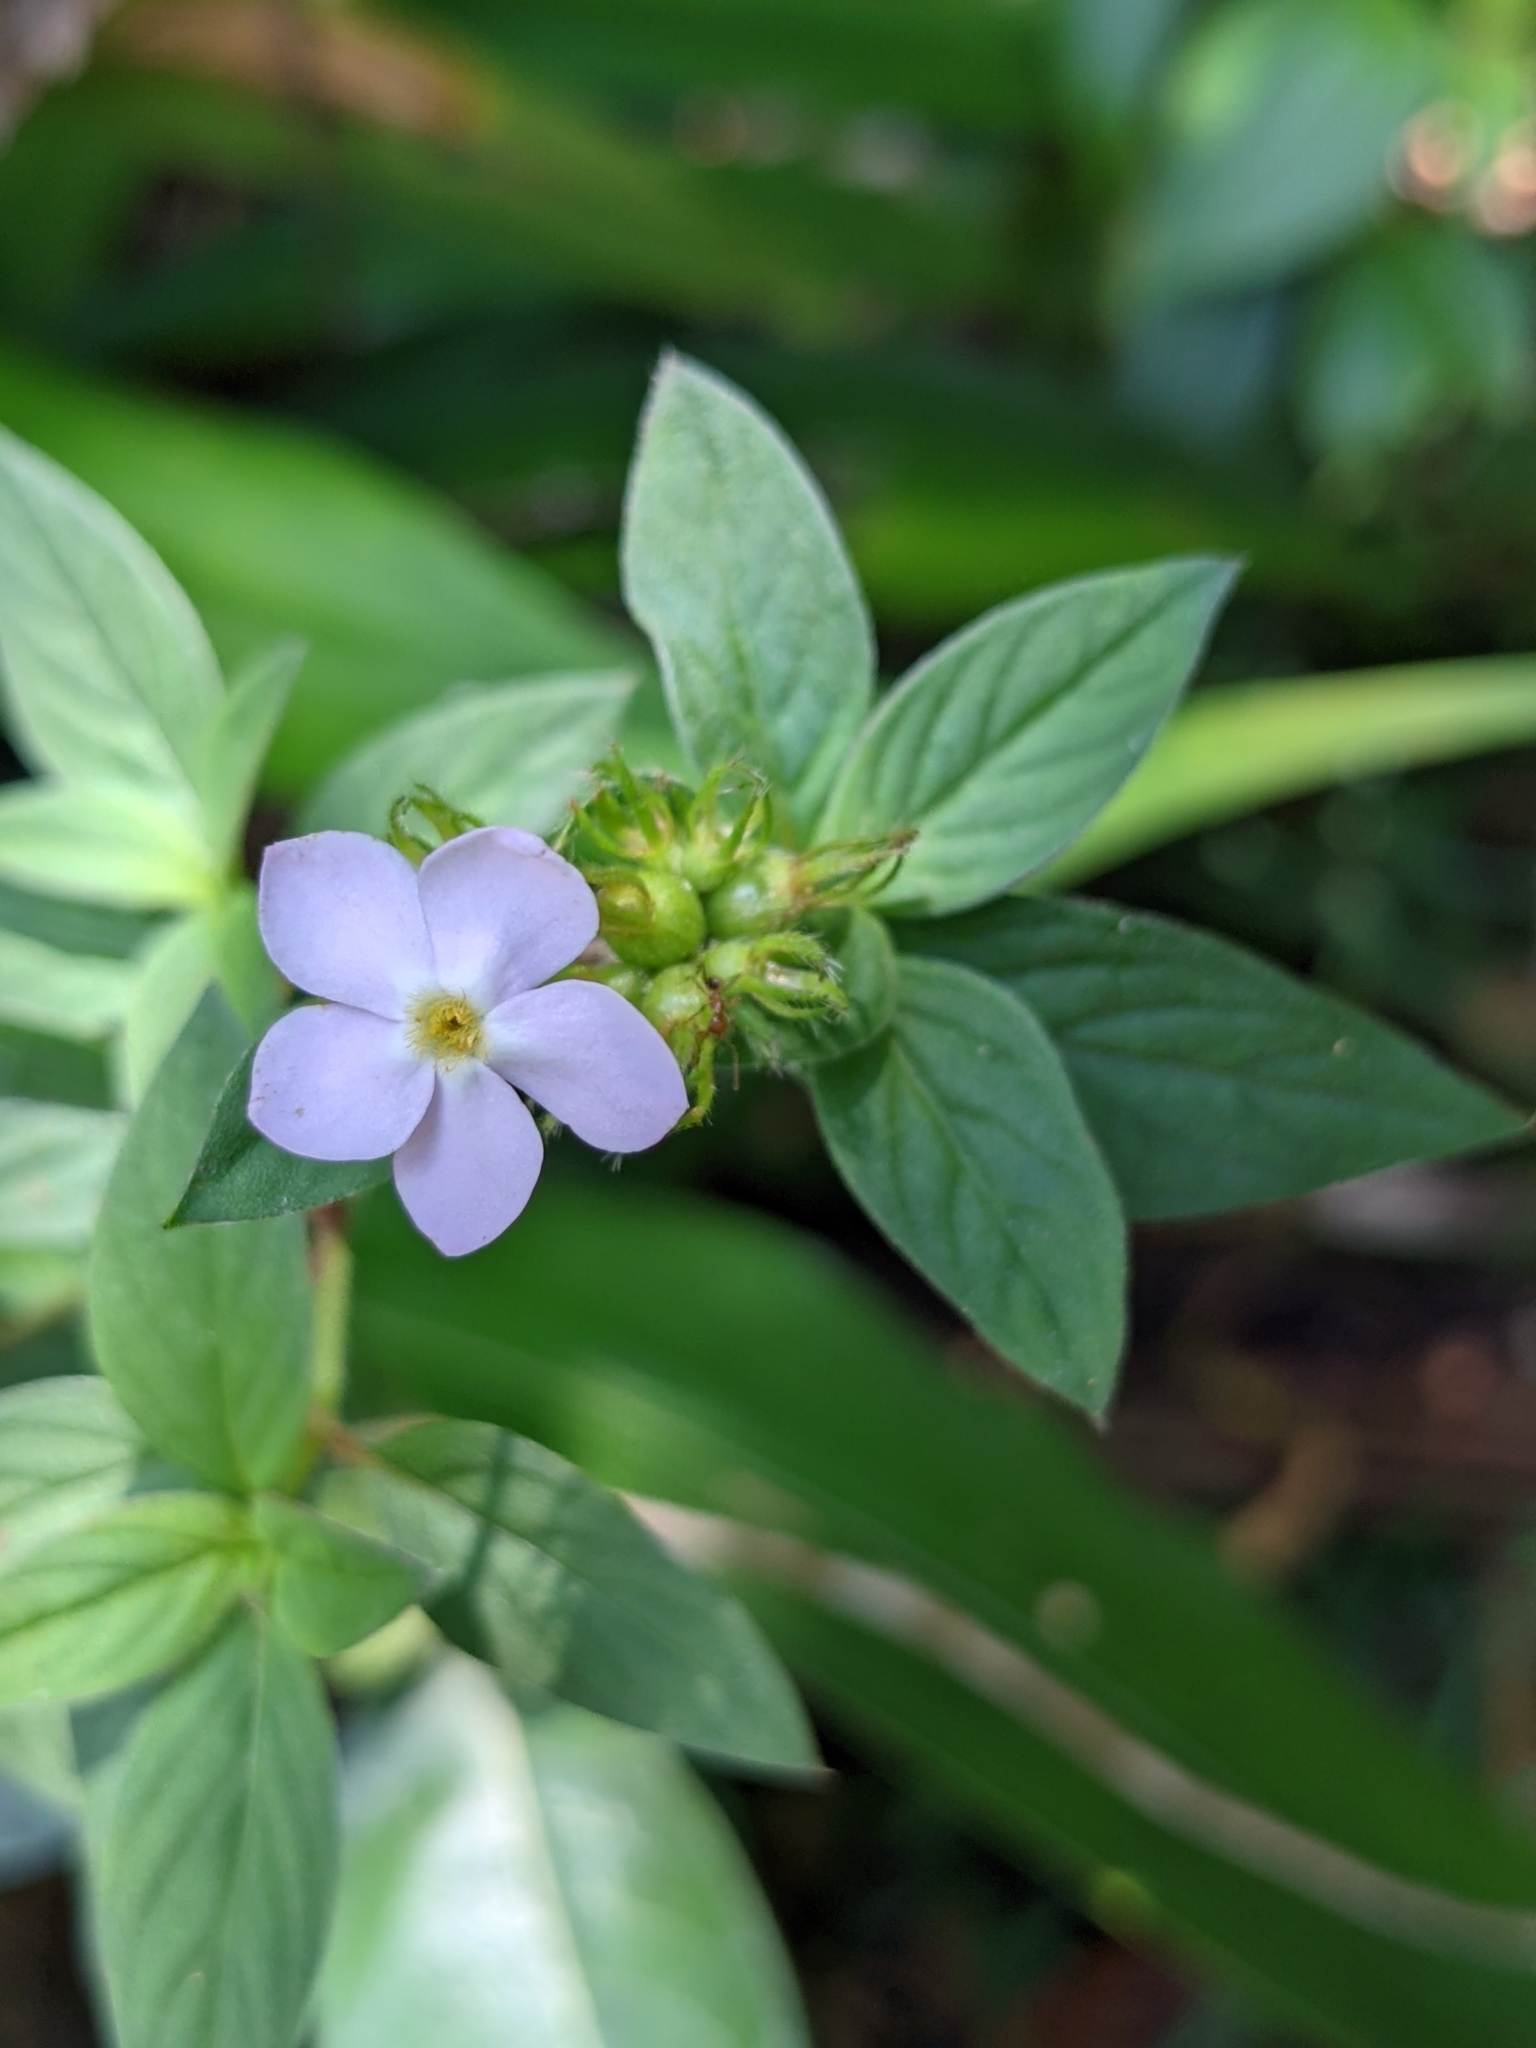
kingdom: Plantae
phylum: Tracheophyta
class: Magnoliopsida
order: Gentianales
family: Rubiaceae
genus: Sipanea
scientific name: Sipanea pratensis
